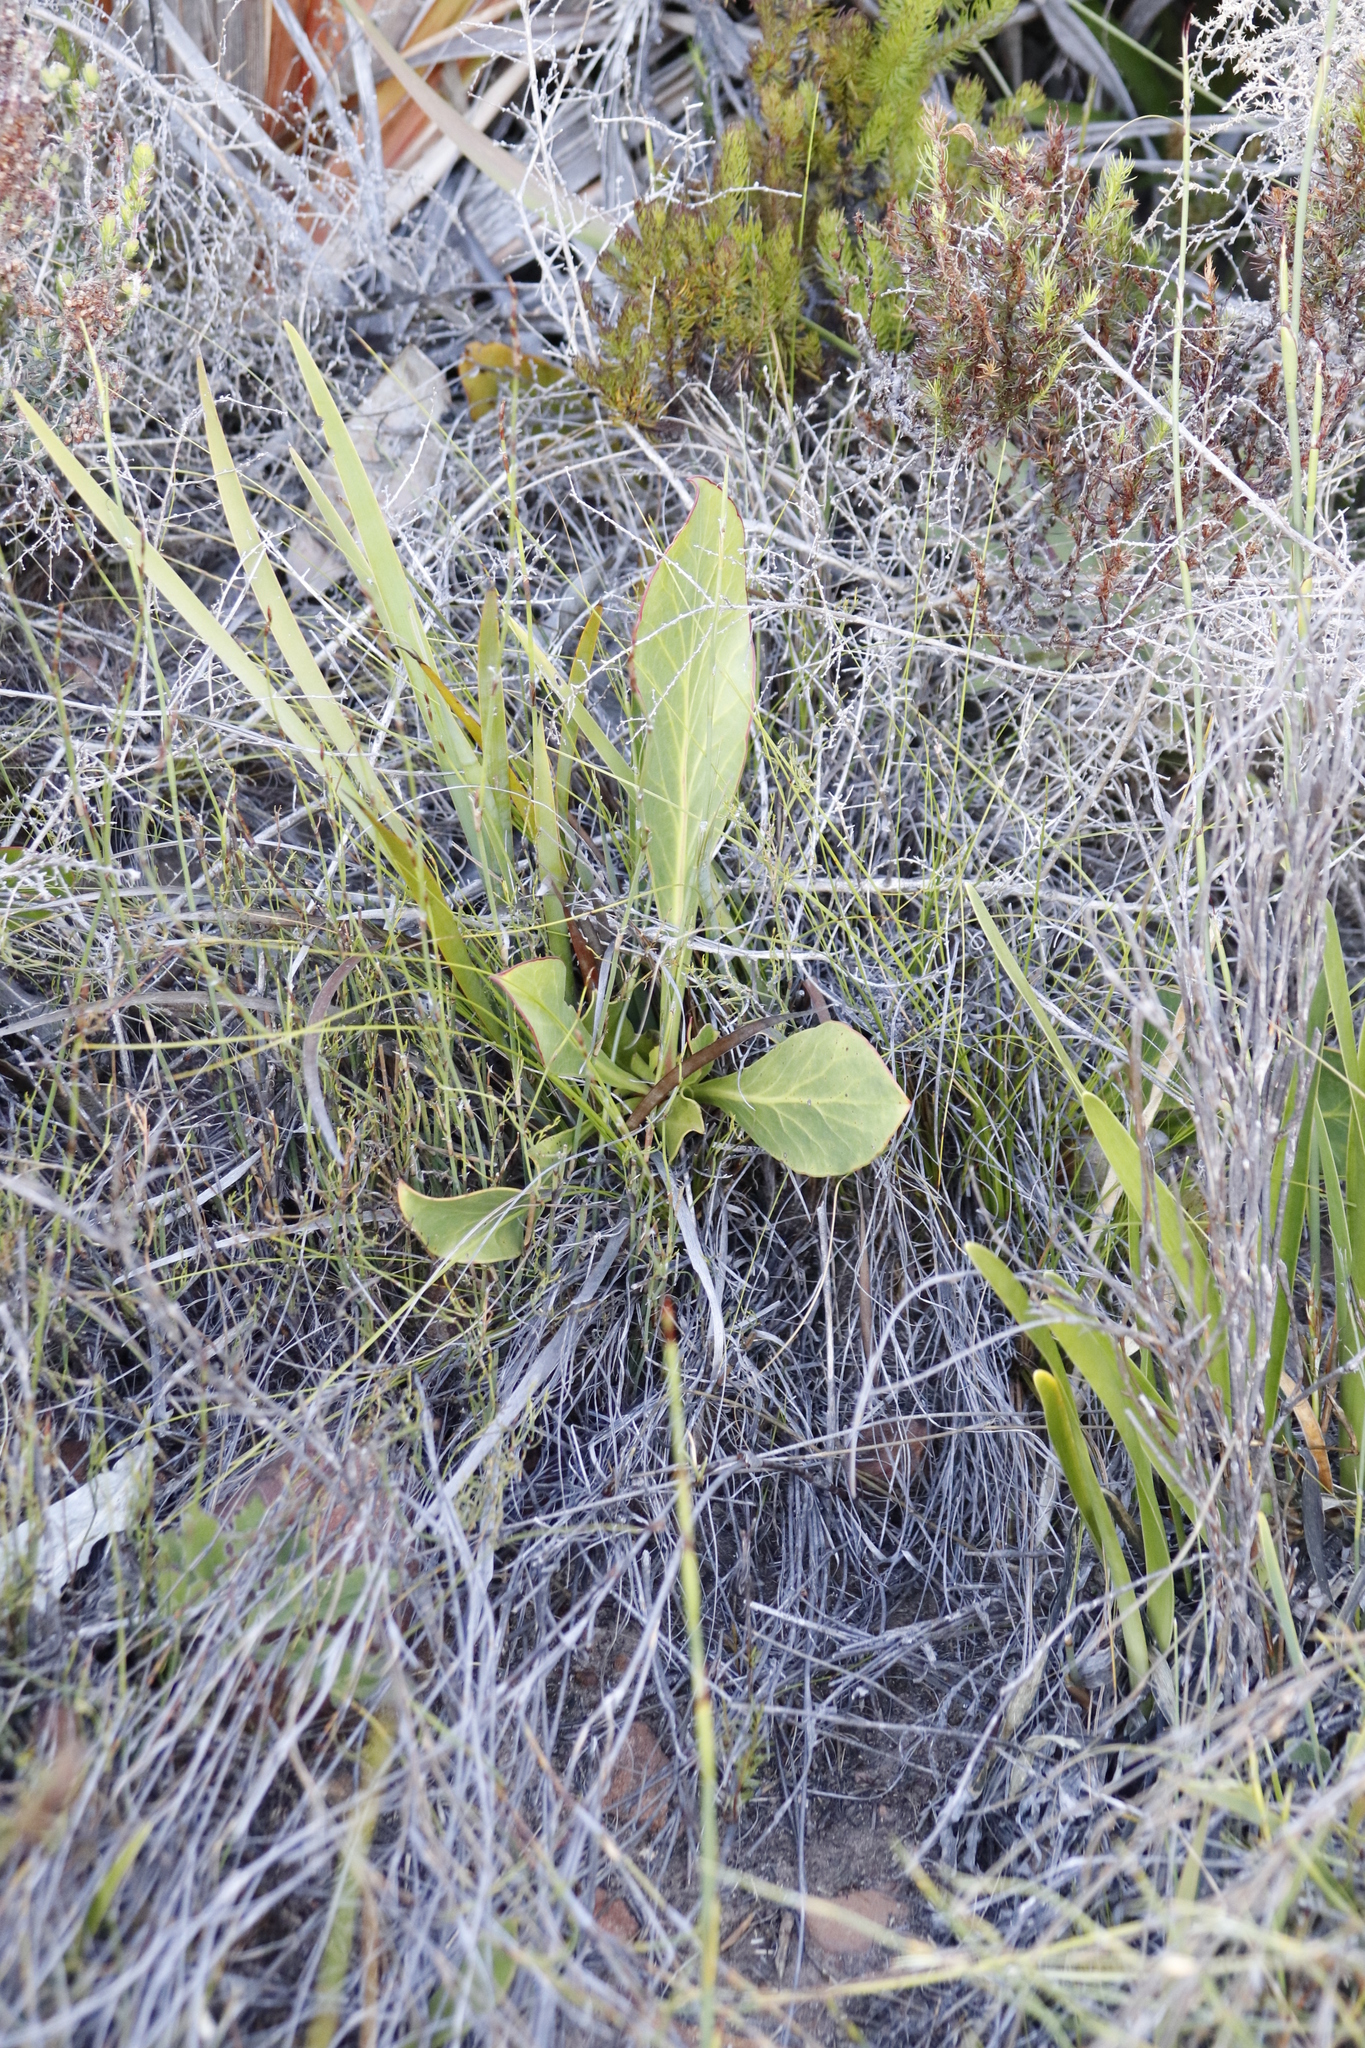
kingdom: Plantae
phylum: Tracheophyta
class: Magnoliopsida
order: Proteales
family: Proteaceae
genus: Protea
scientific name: Protea acaulos
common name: Common ground sugarbush
